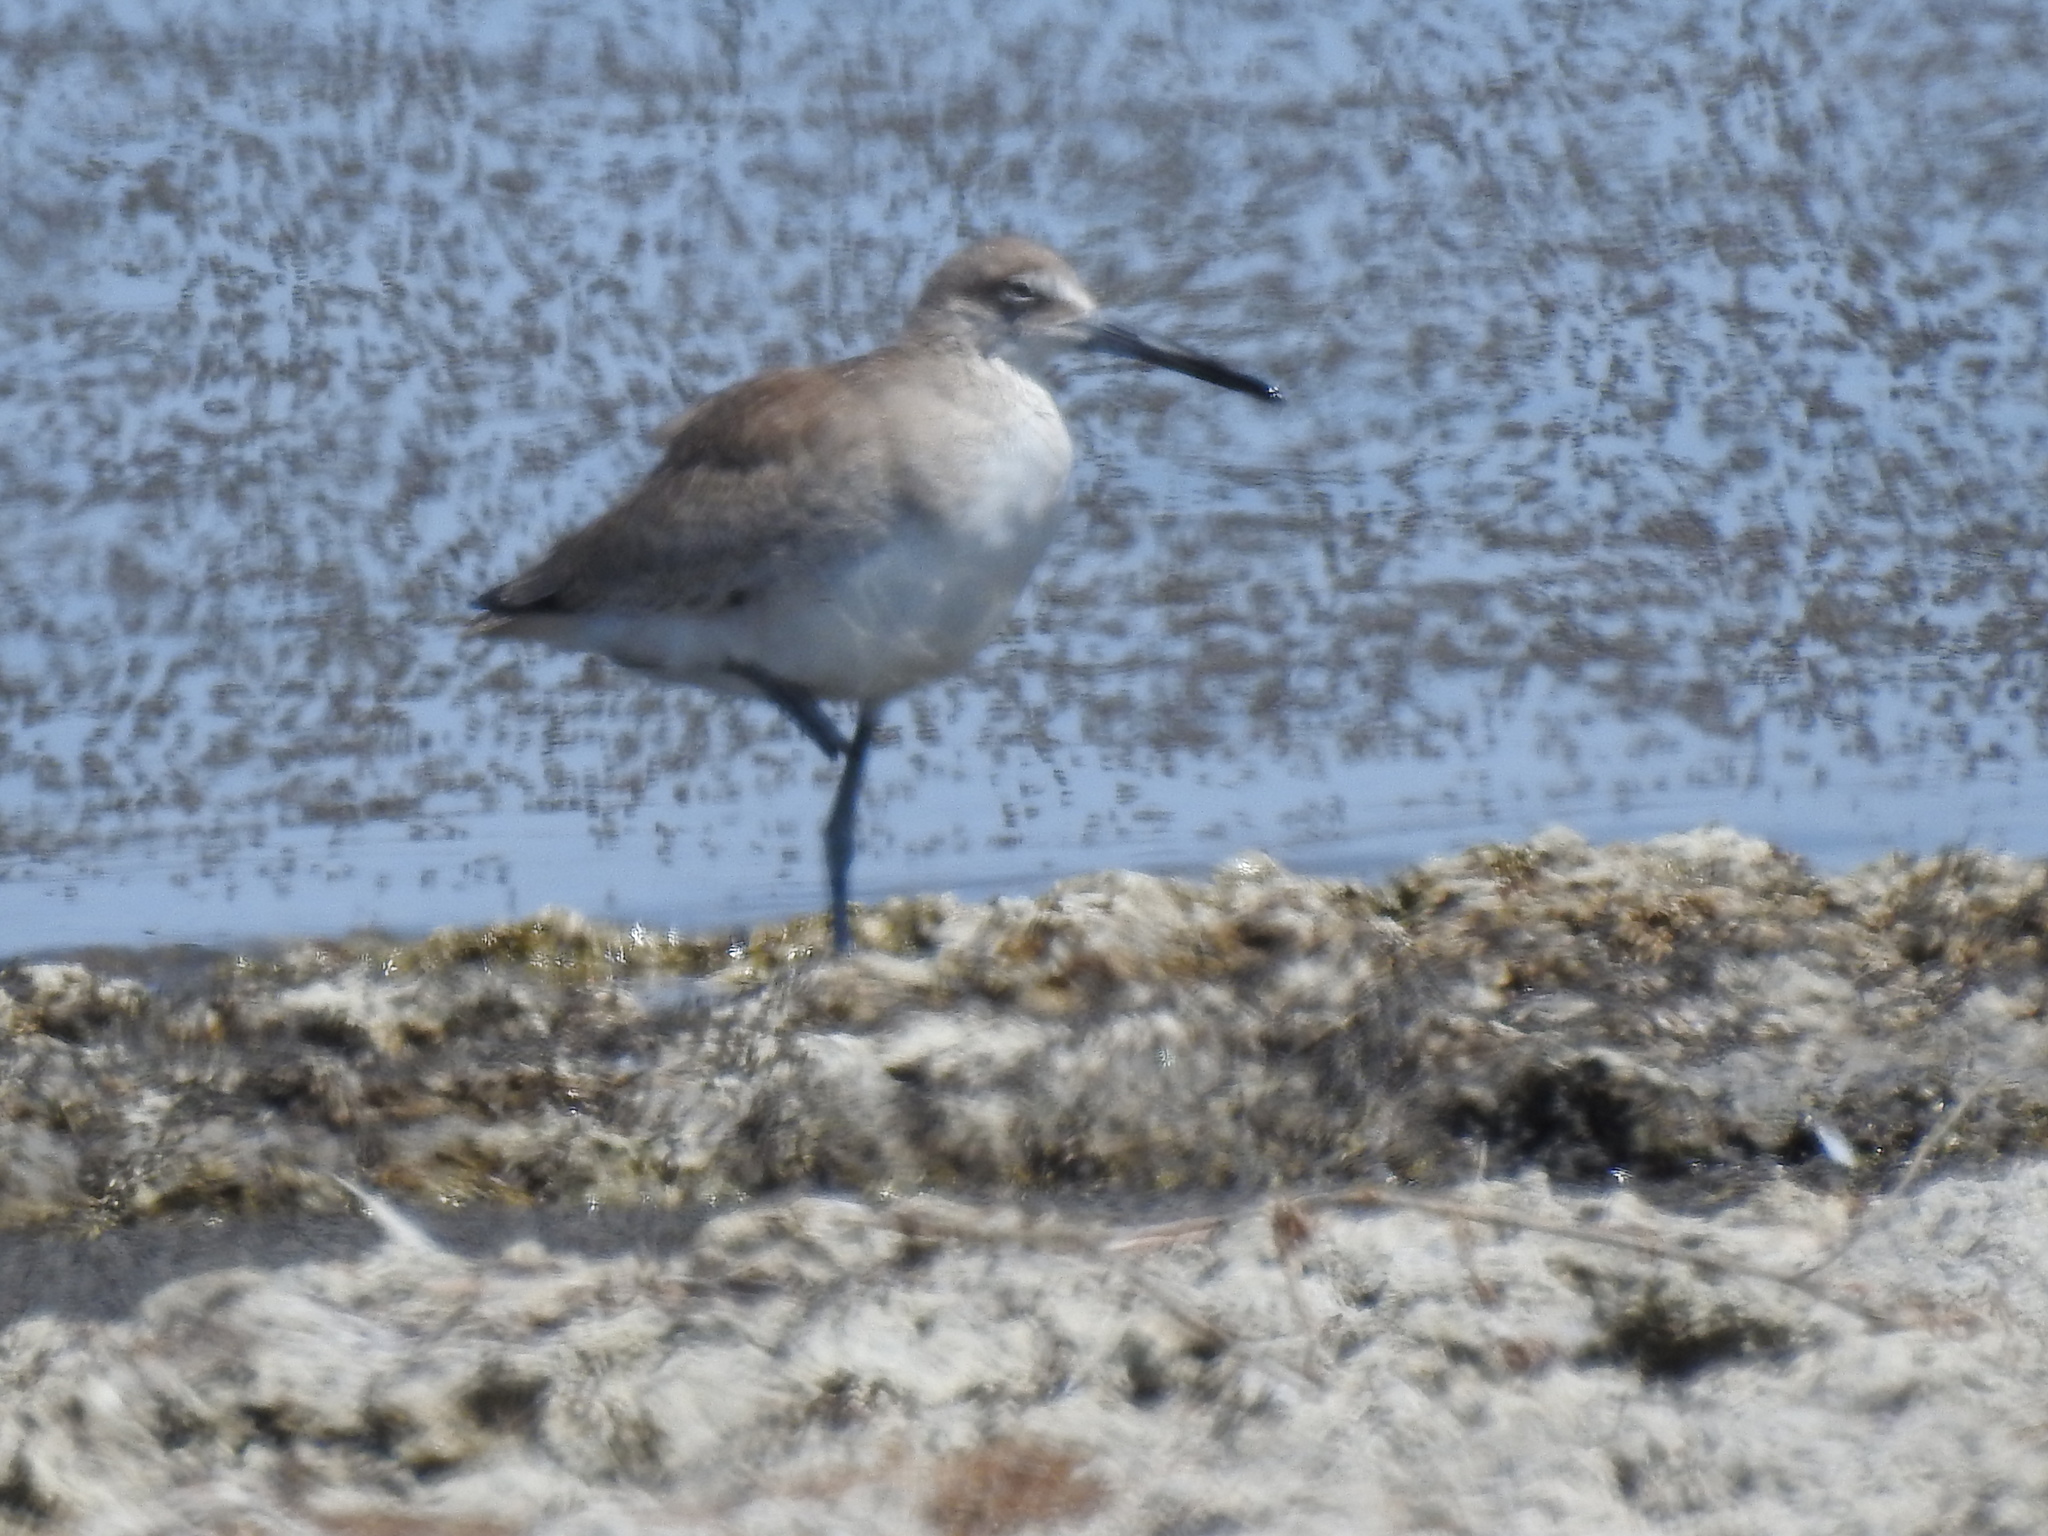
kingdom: Animalia
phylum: Chordata
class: Aves
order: Charadriiformes
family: Scolopacidae
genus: Tringa
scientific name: Tringa semipalmata
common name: Willet
